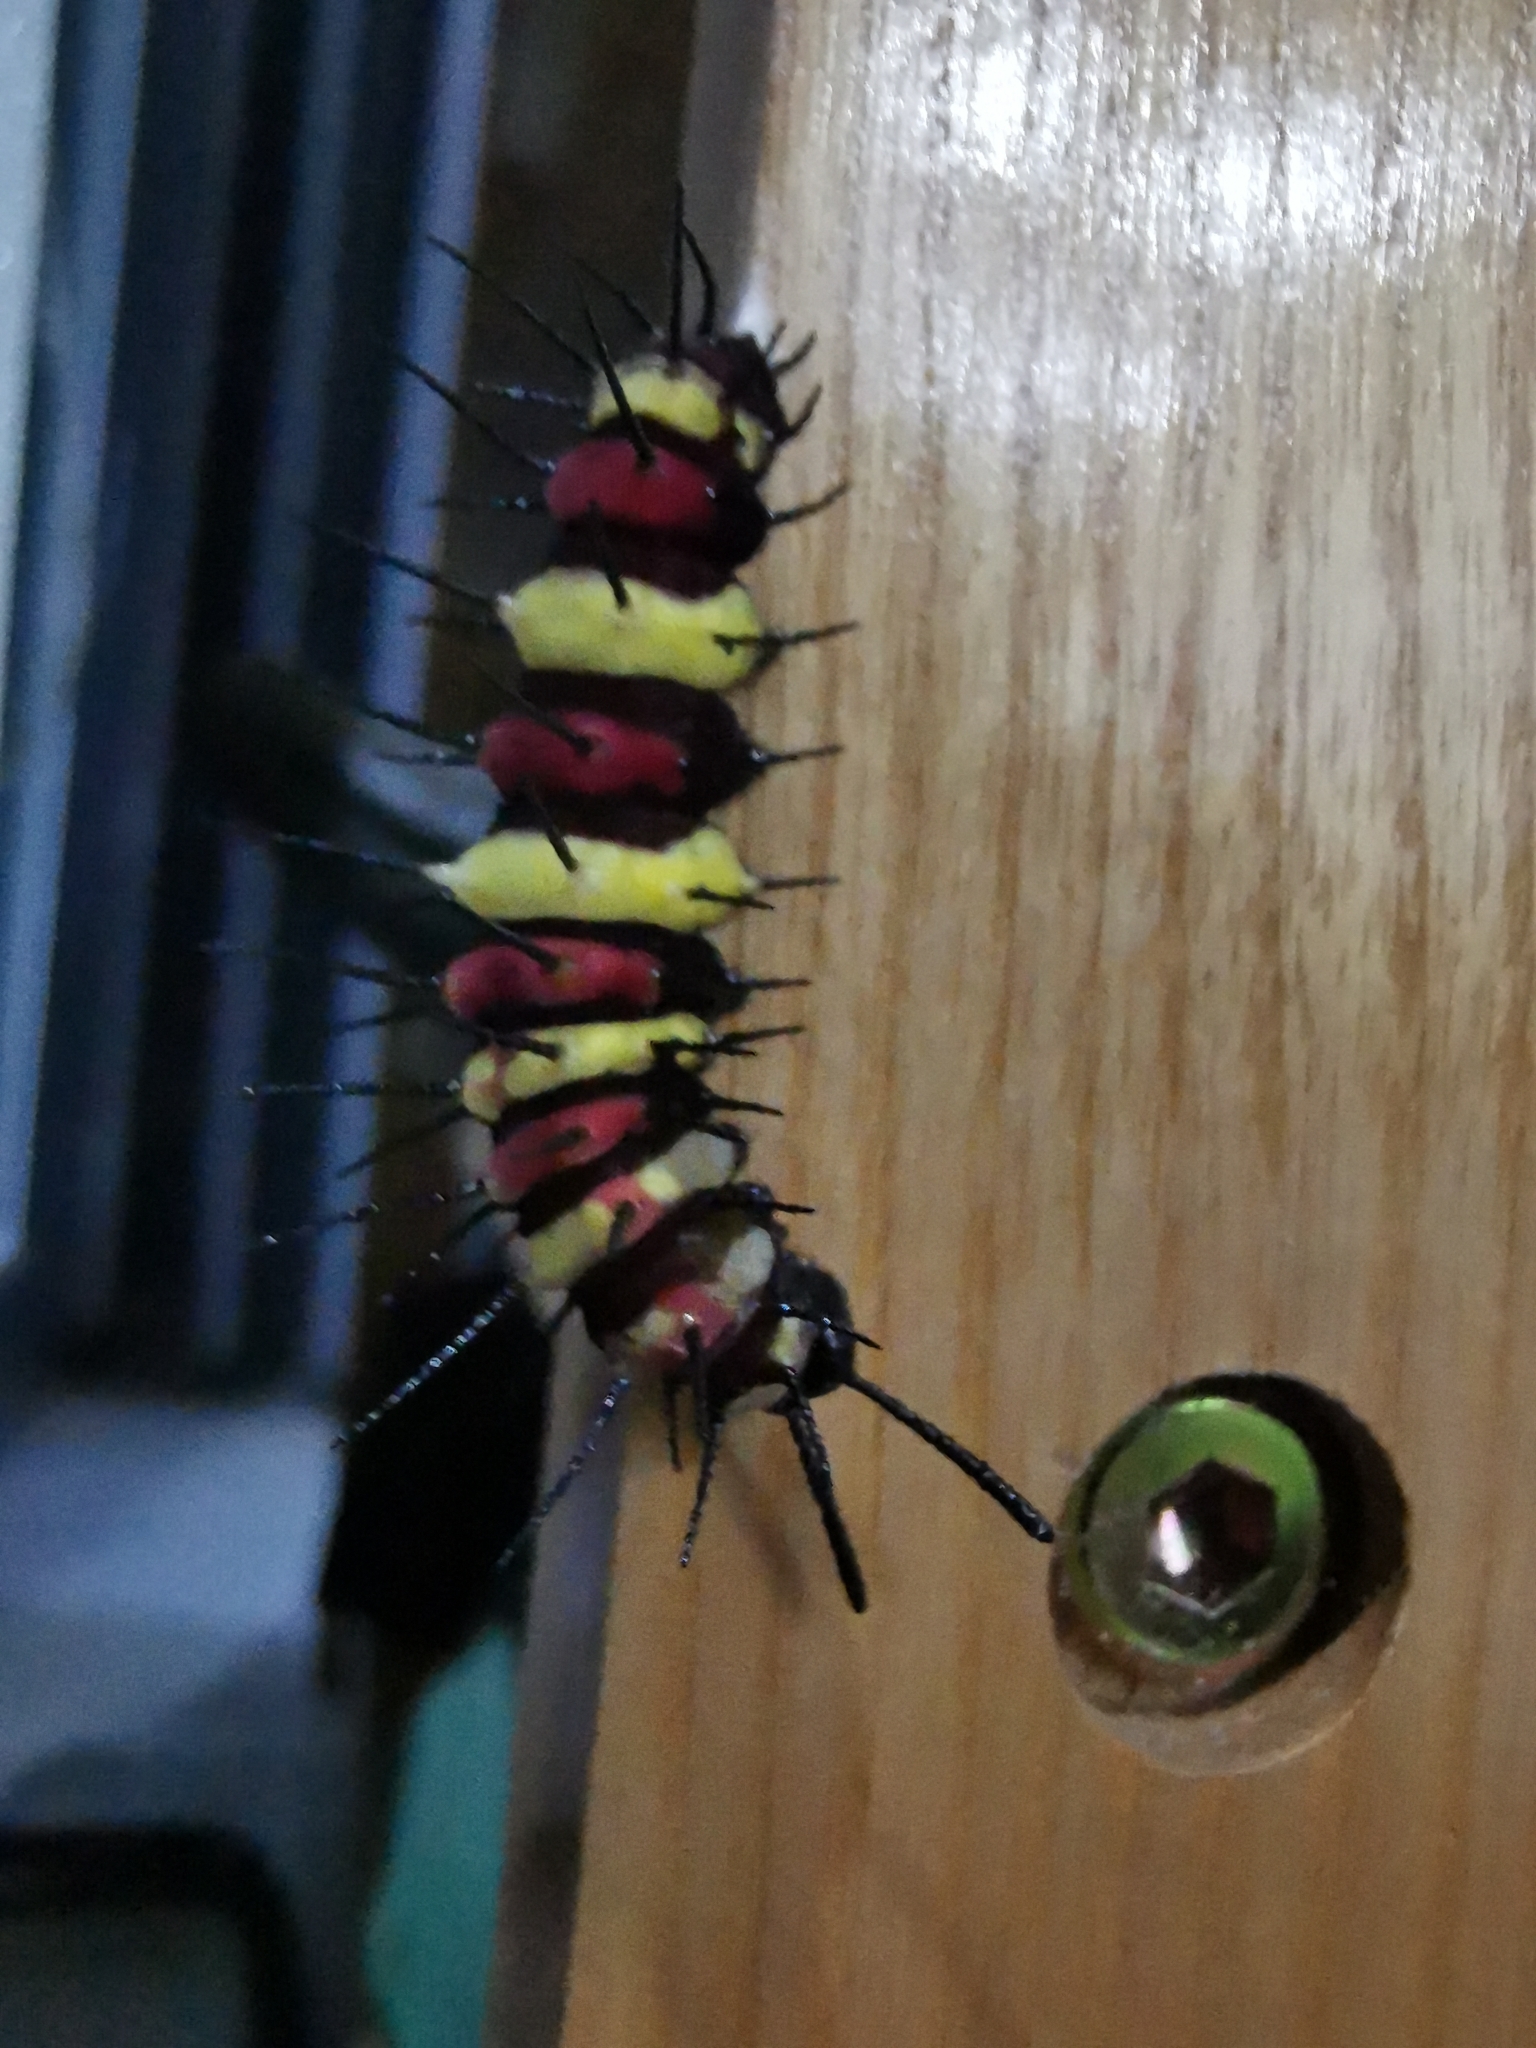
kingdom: Animalia
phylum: Arthropoda
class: Insecta
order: Lepidoptera
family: Nymphalidae
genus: Cethosia
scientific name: Cethosia cyane
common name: Leopard lacewing butterfly
